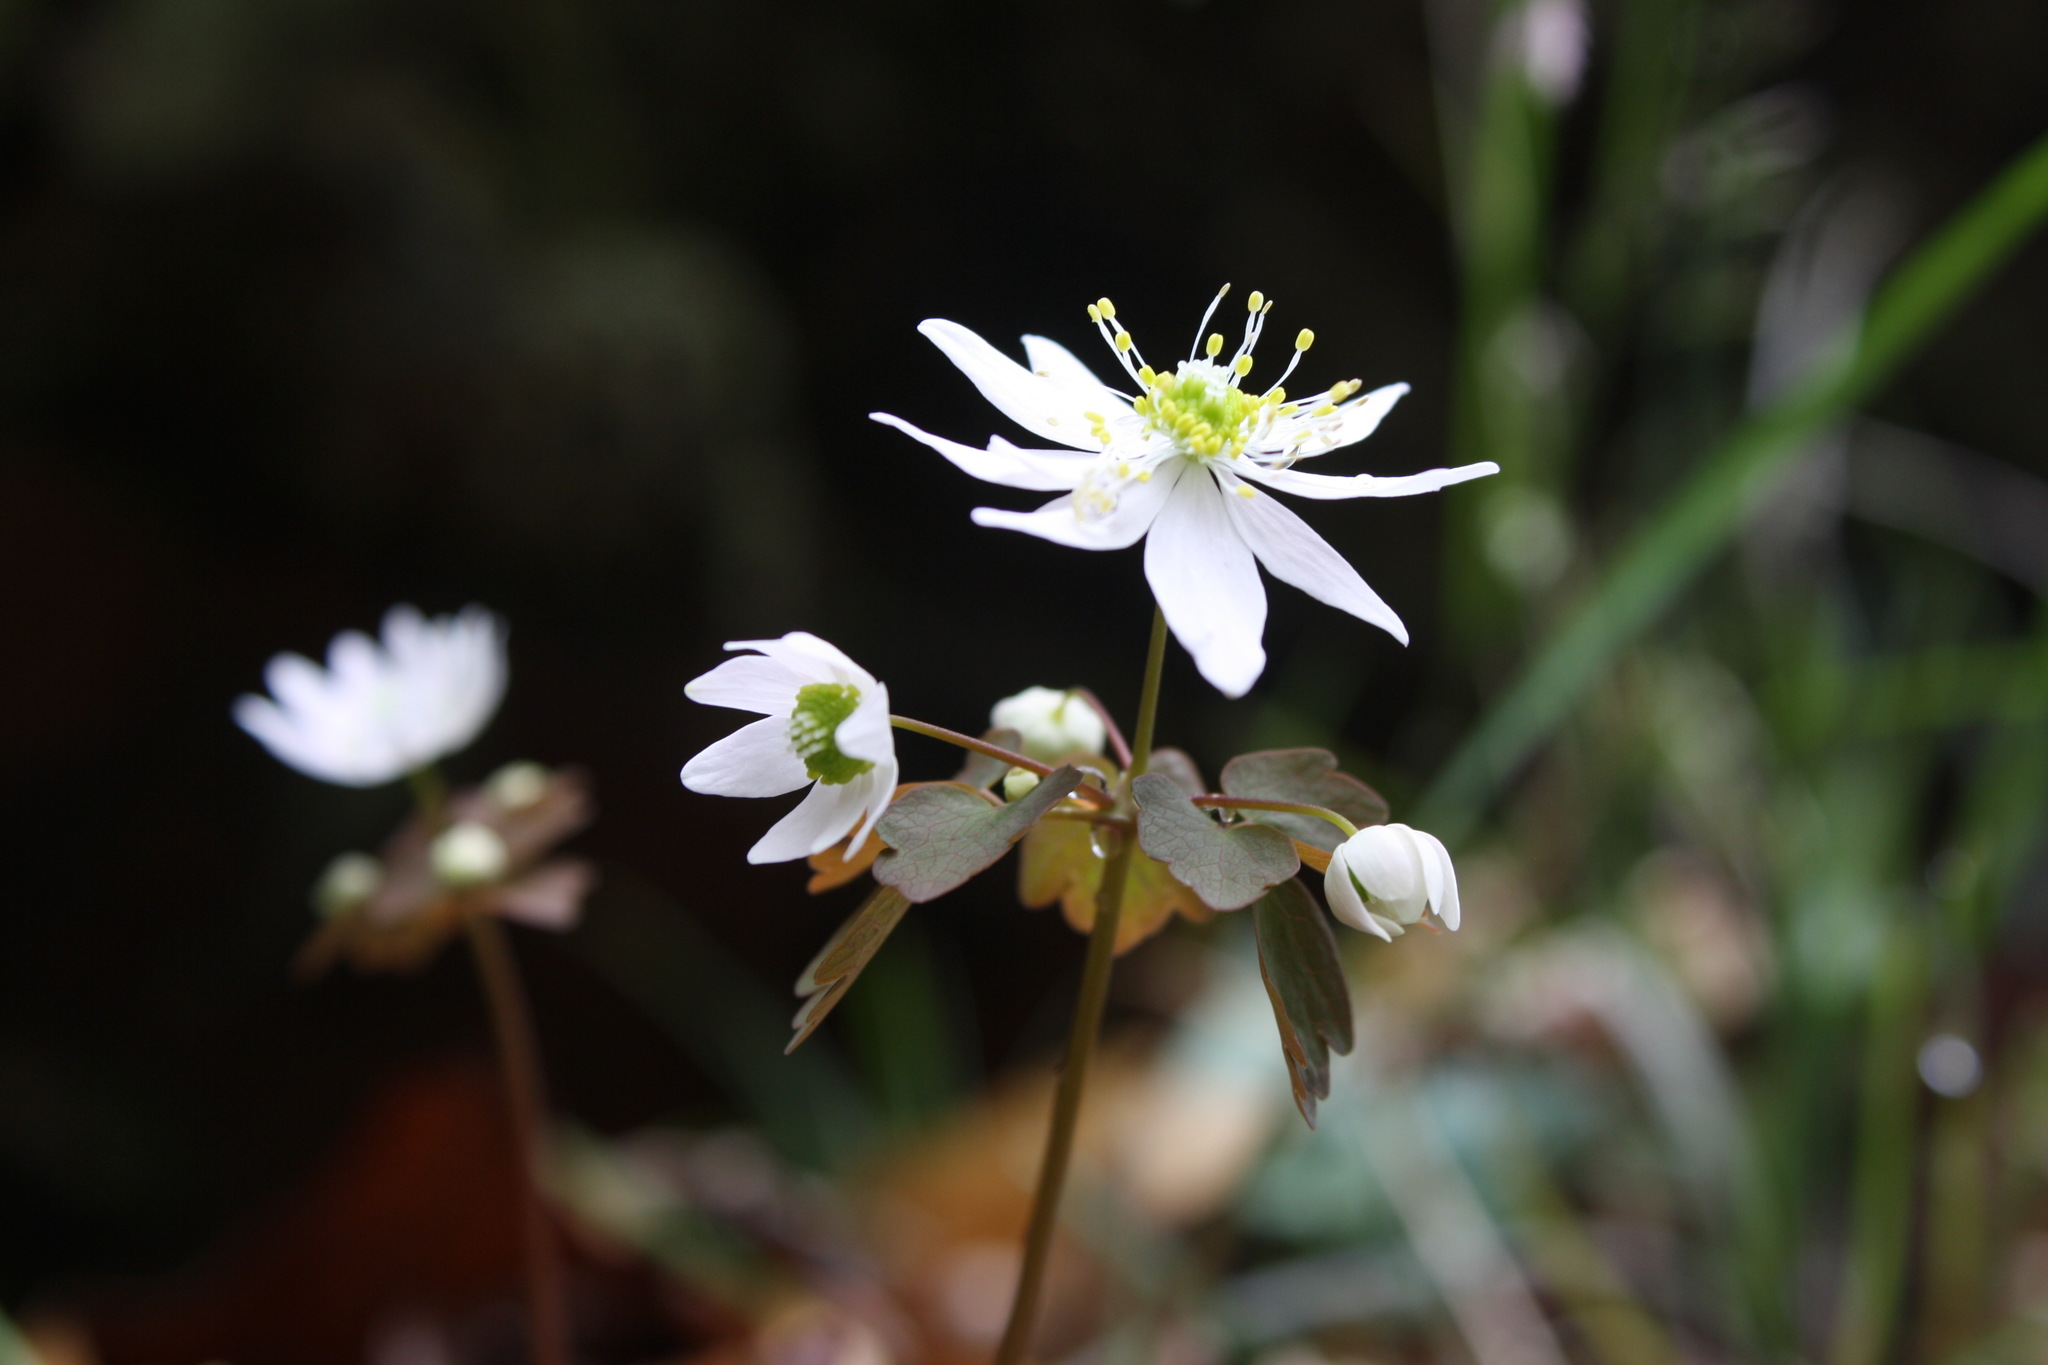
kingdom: Plantae
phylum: Tracheophyta
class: Magnoliopsida
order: Ranunculales
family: Ranunculaceae
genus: Thalictrum
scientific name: Thalictrum thalictroides
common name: Rue-anemone
